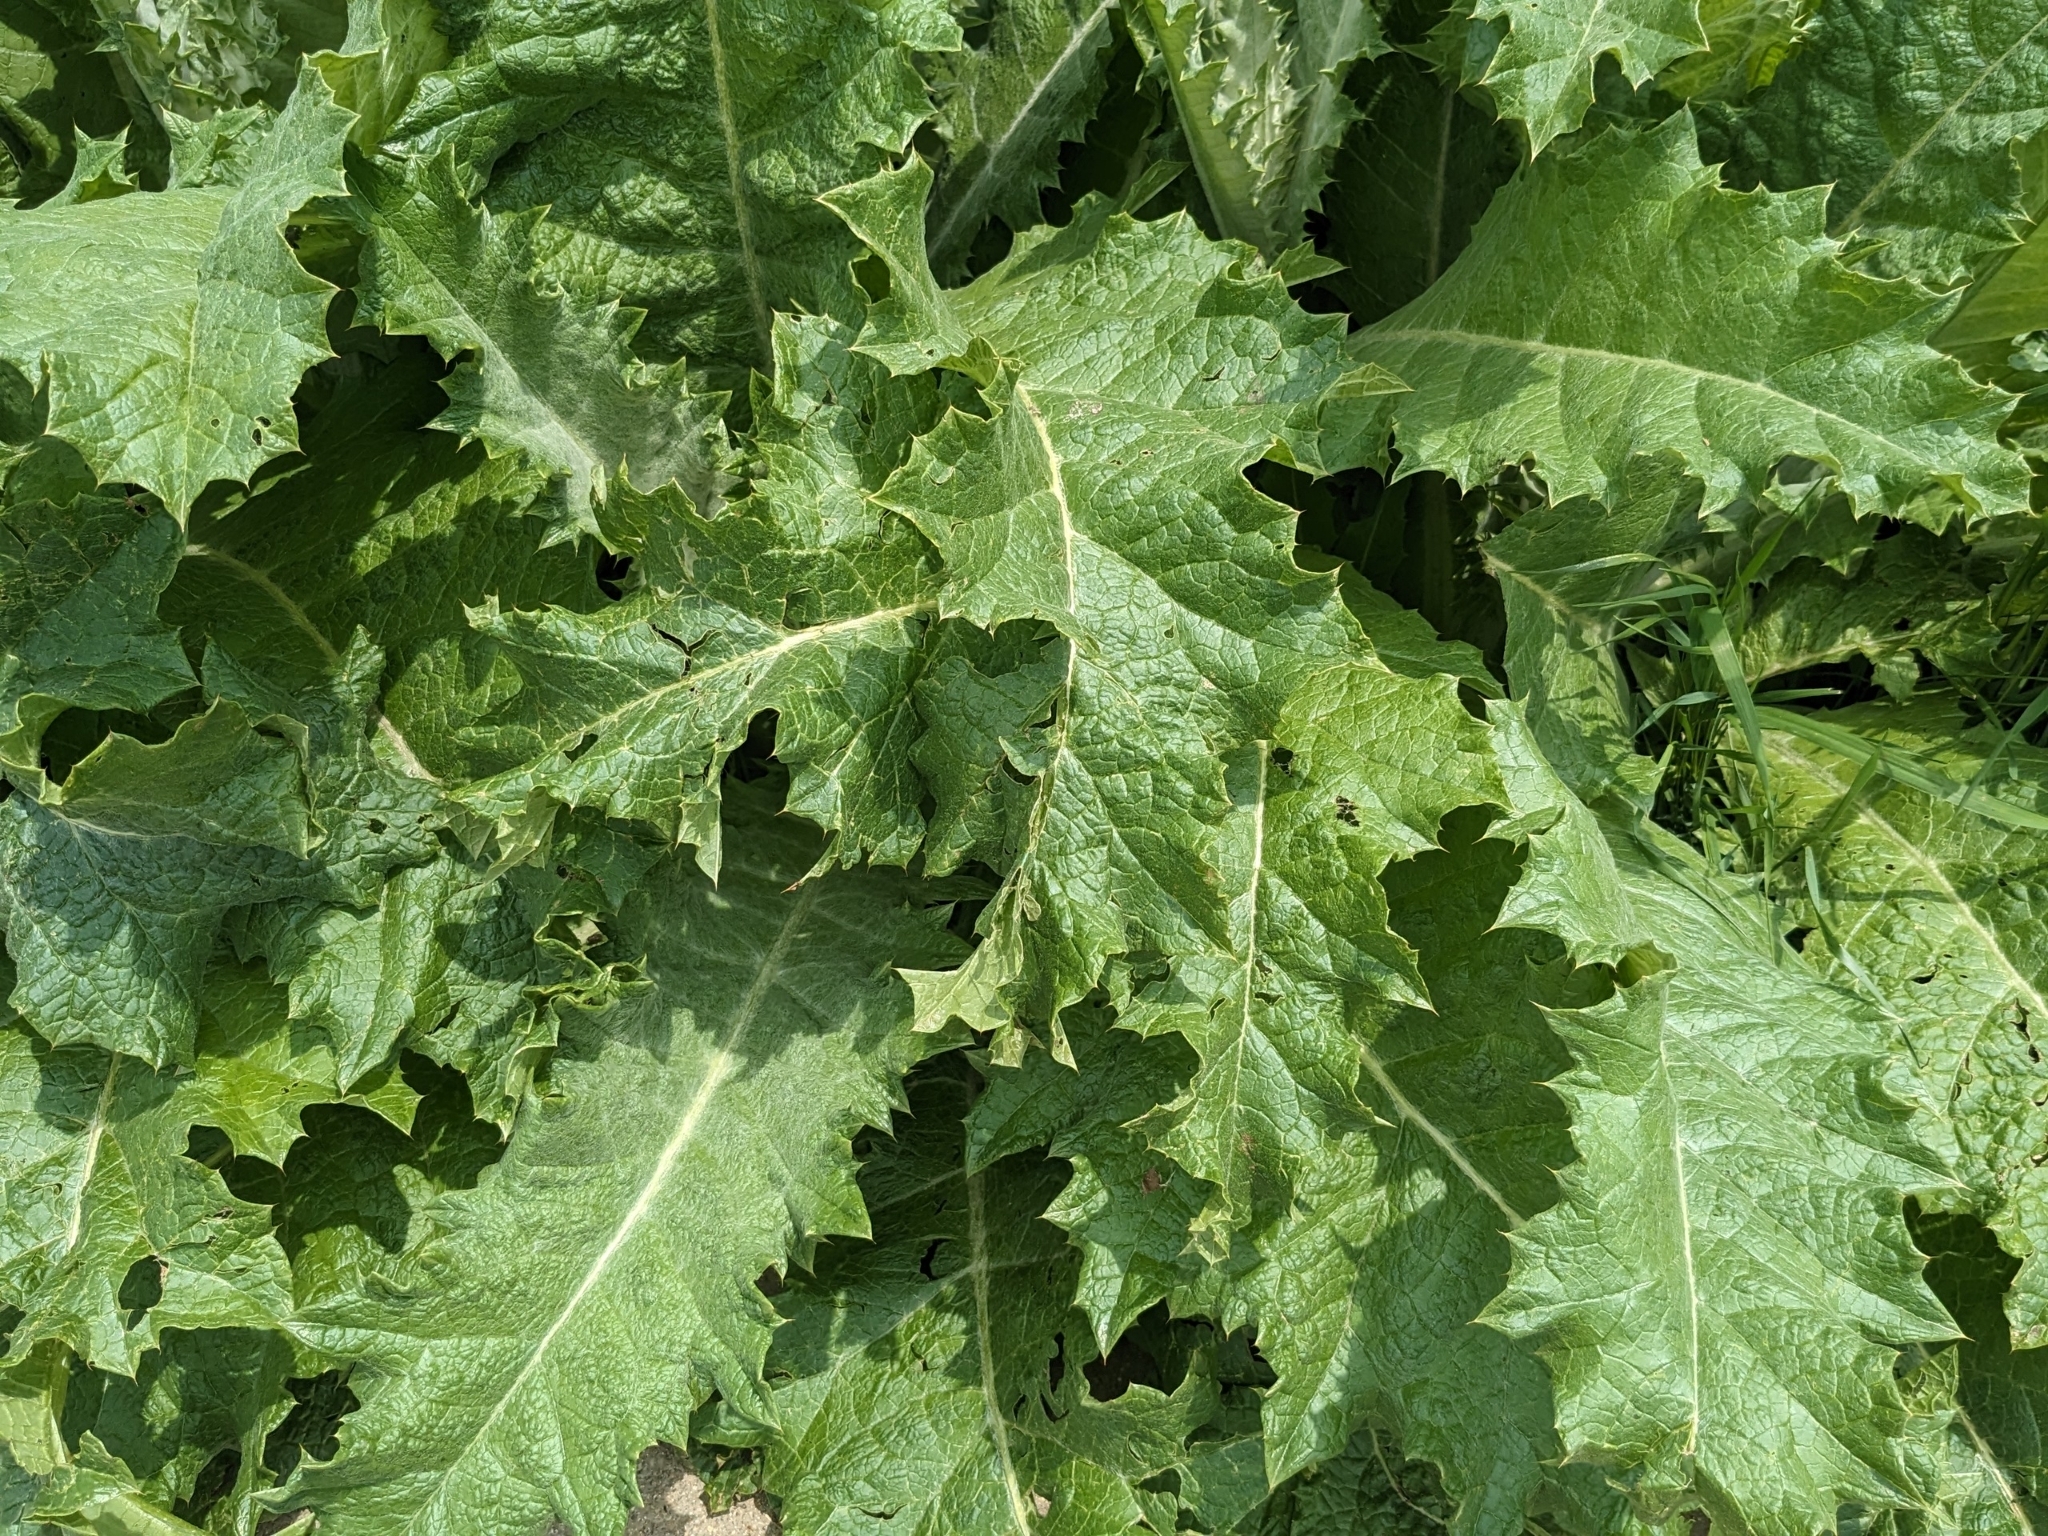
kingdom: Plantae
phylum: Tracheophyta
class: Magnoliopsida
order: Asterales
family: Asteraceae
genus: Onopordum
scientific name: Onopordum acanthium
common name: Scotch thistle
